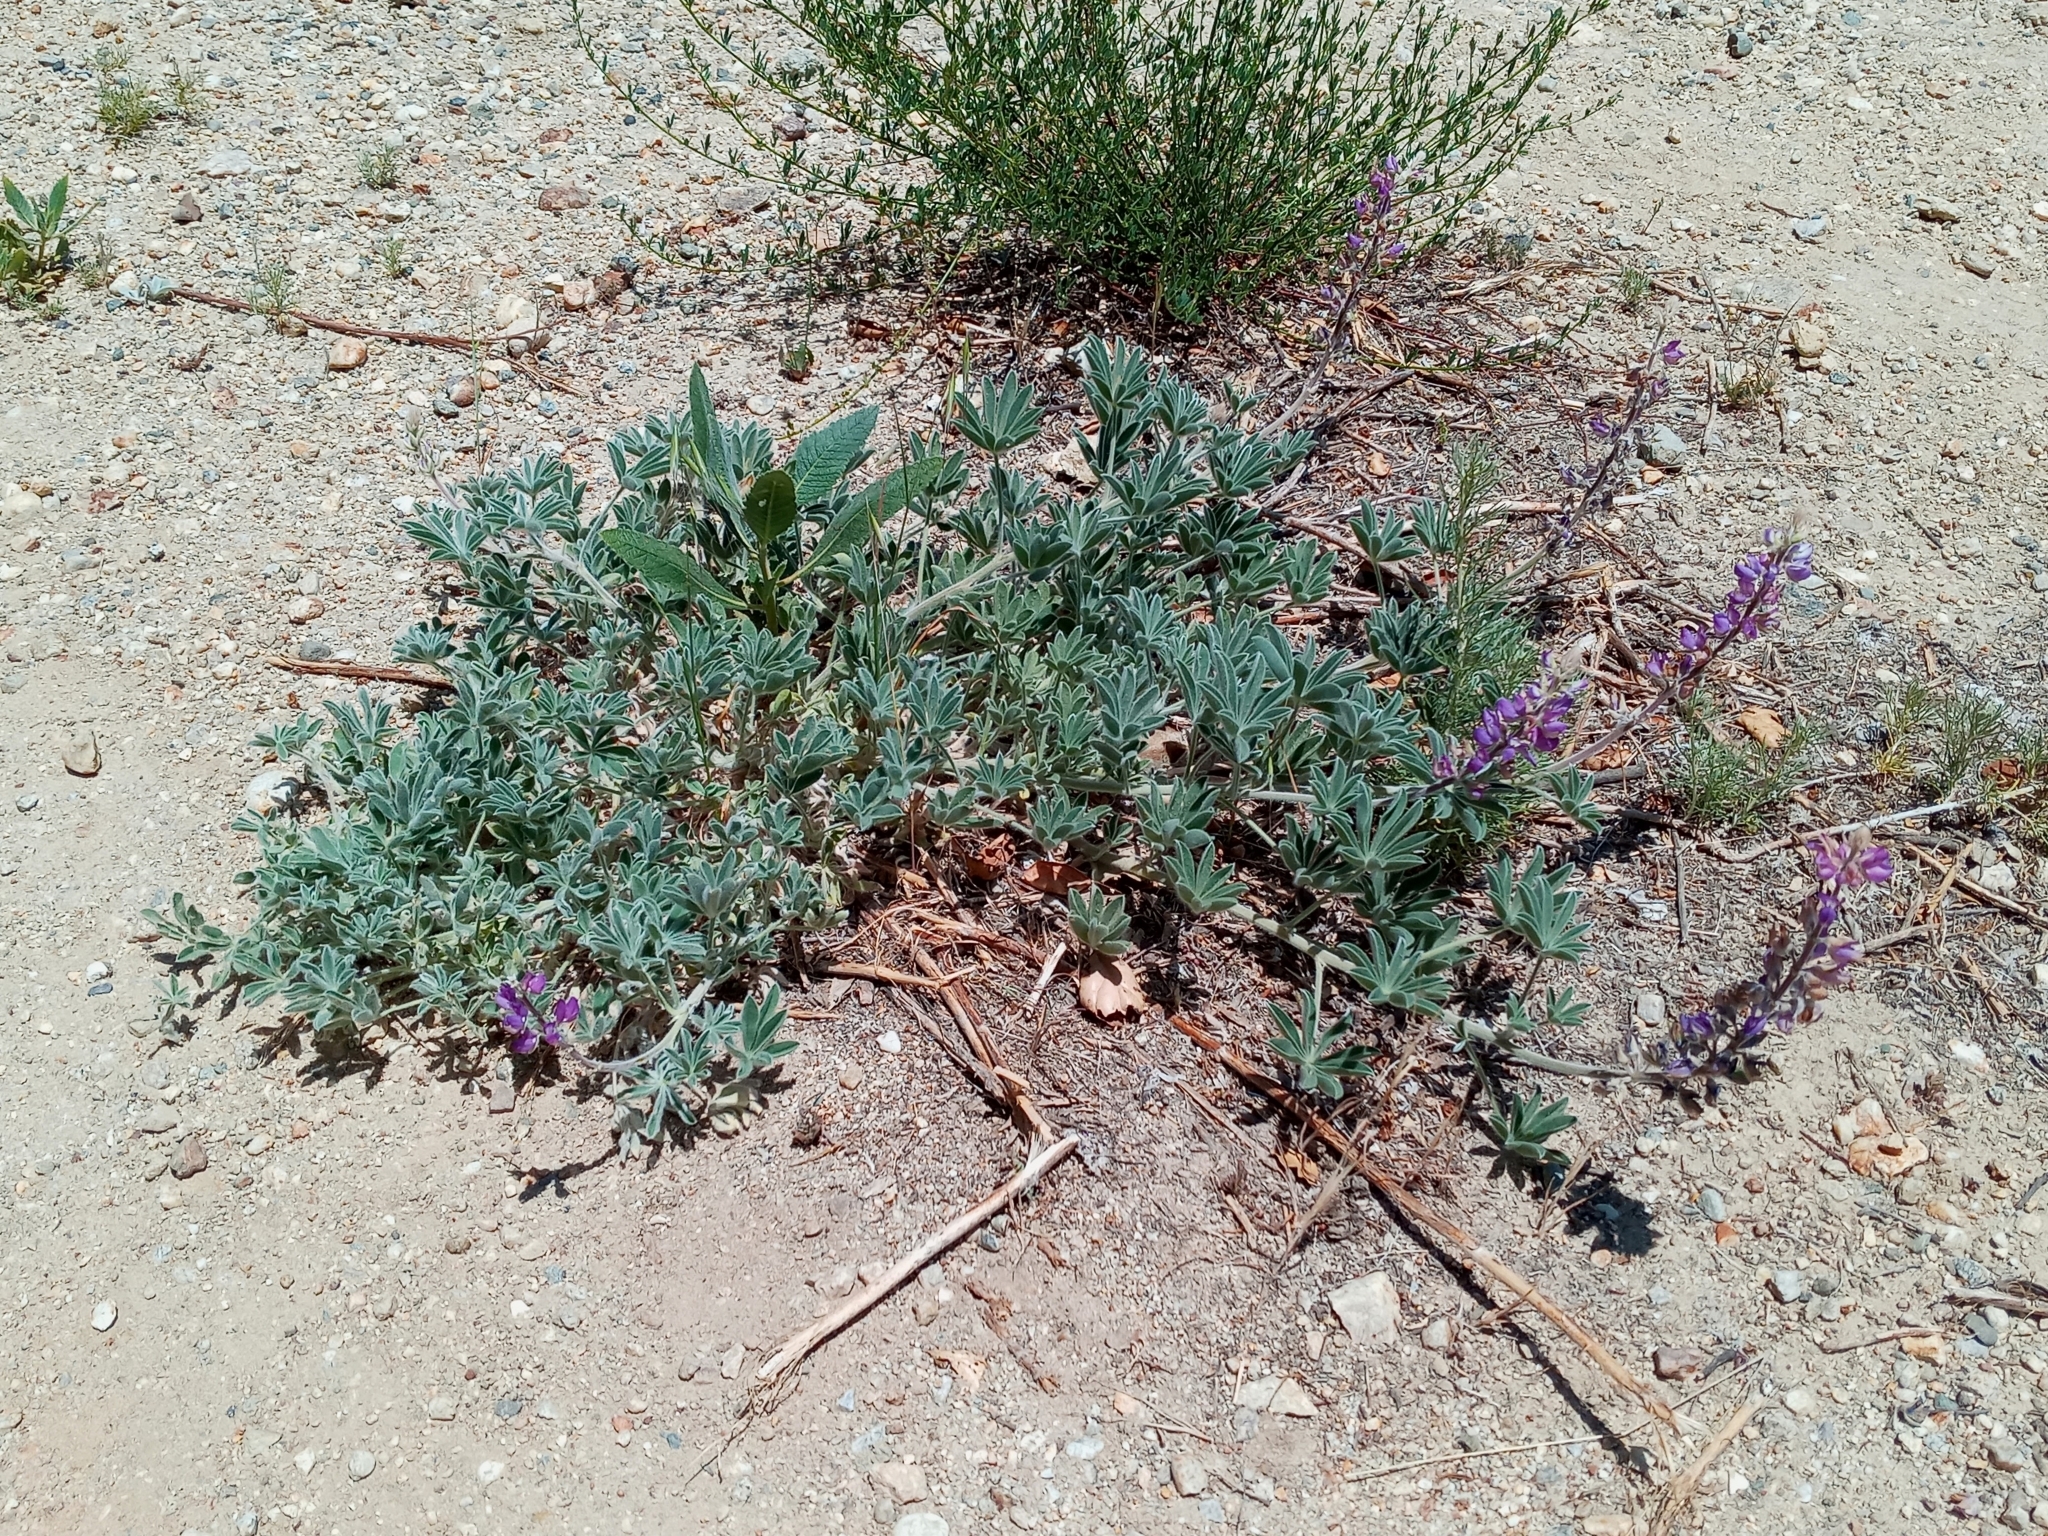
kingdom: Plantae
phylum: Tracheophyta
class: Magnoliopsida
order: Fabales
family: Fabaceae
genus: Lupinus
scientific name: Lupinus formosus
